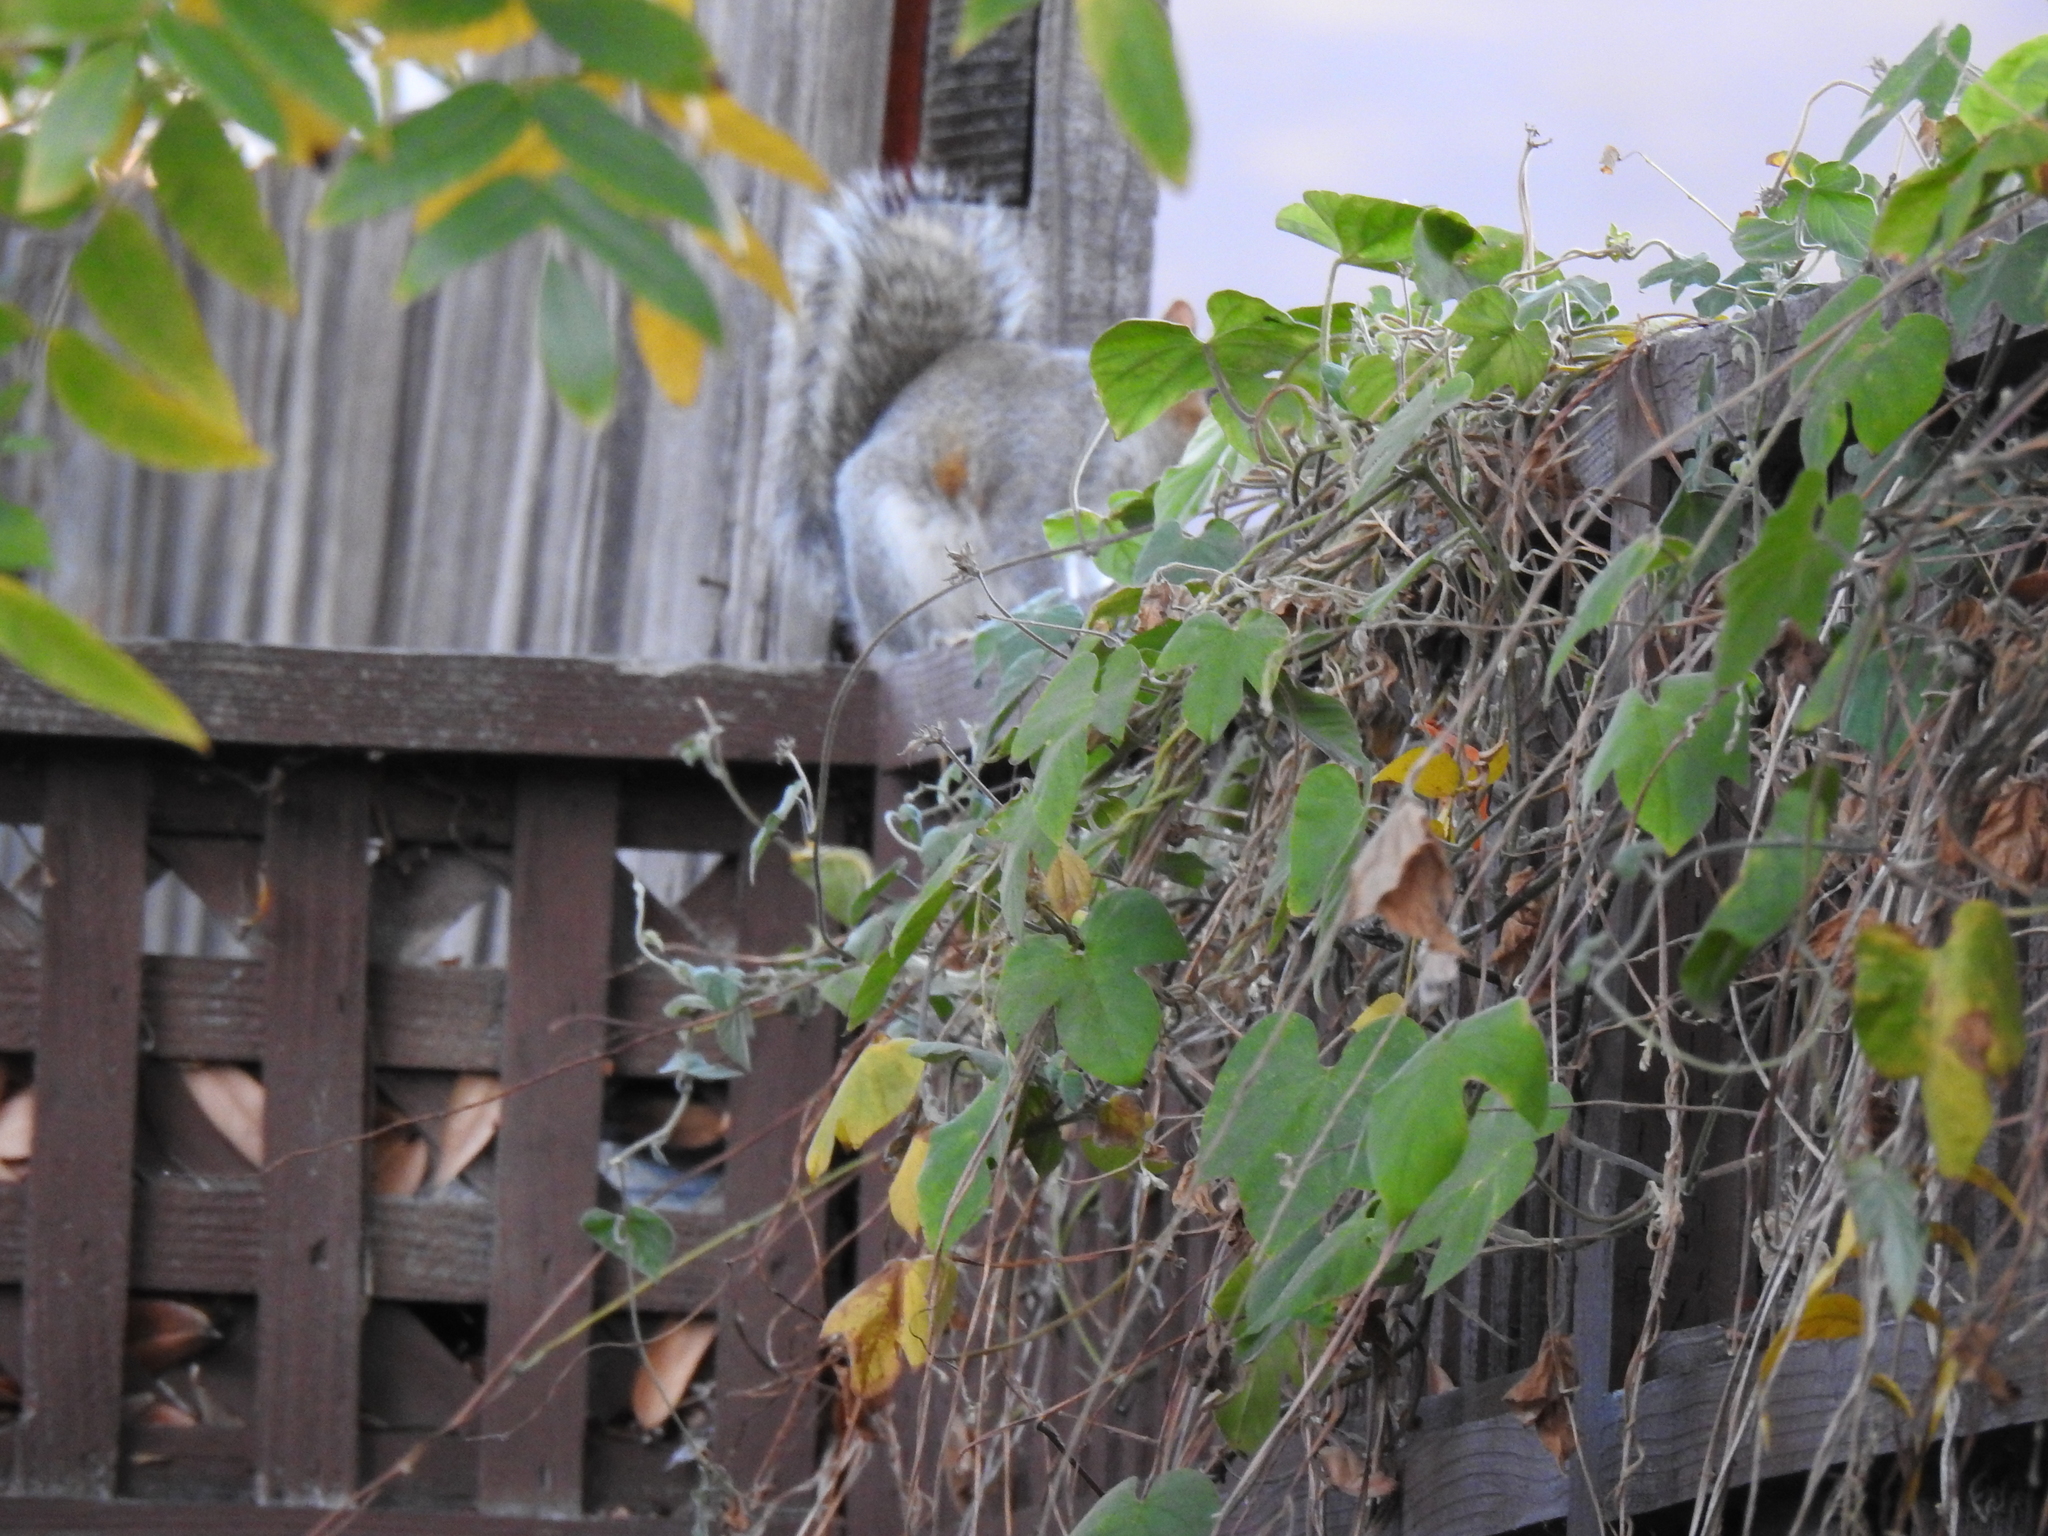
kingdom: Animalia
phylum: Chordata
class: Mammalia
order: Rodentia
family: Sciuridae
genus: Sciurus
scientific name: Sciurus carolinensis
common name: Eastern gray squirrel
